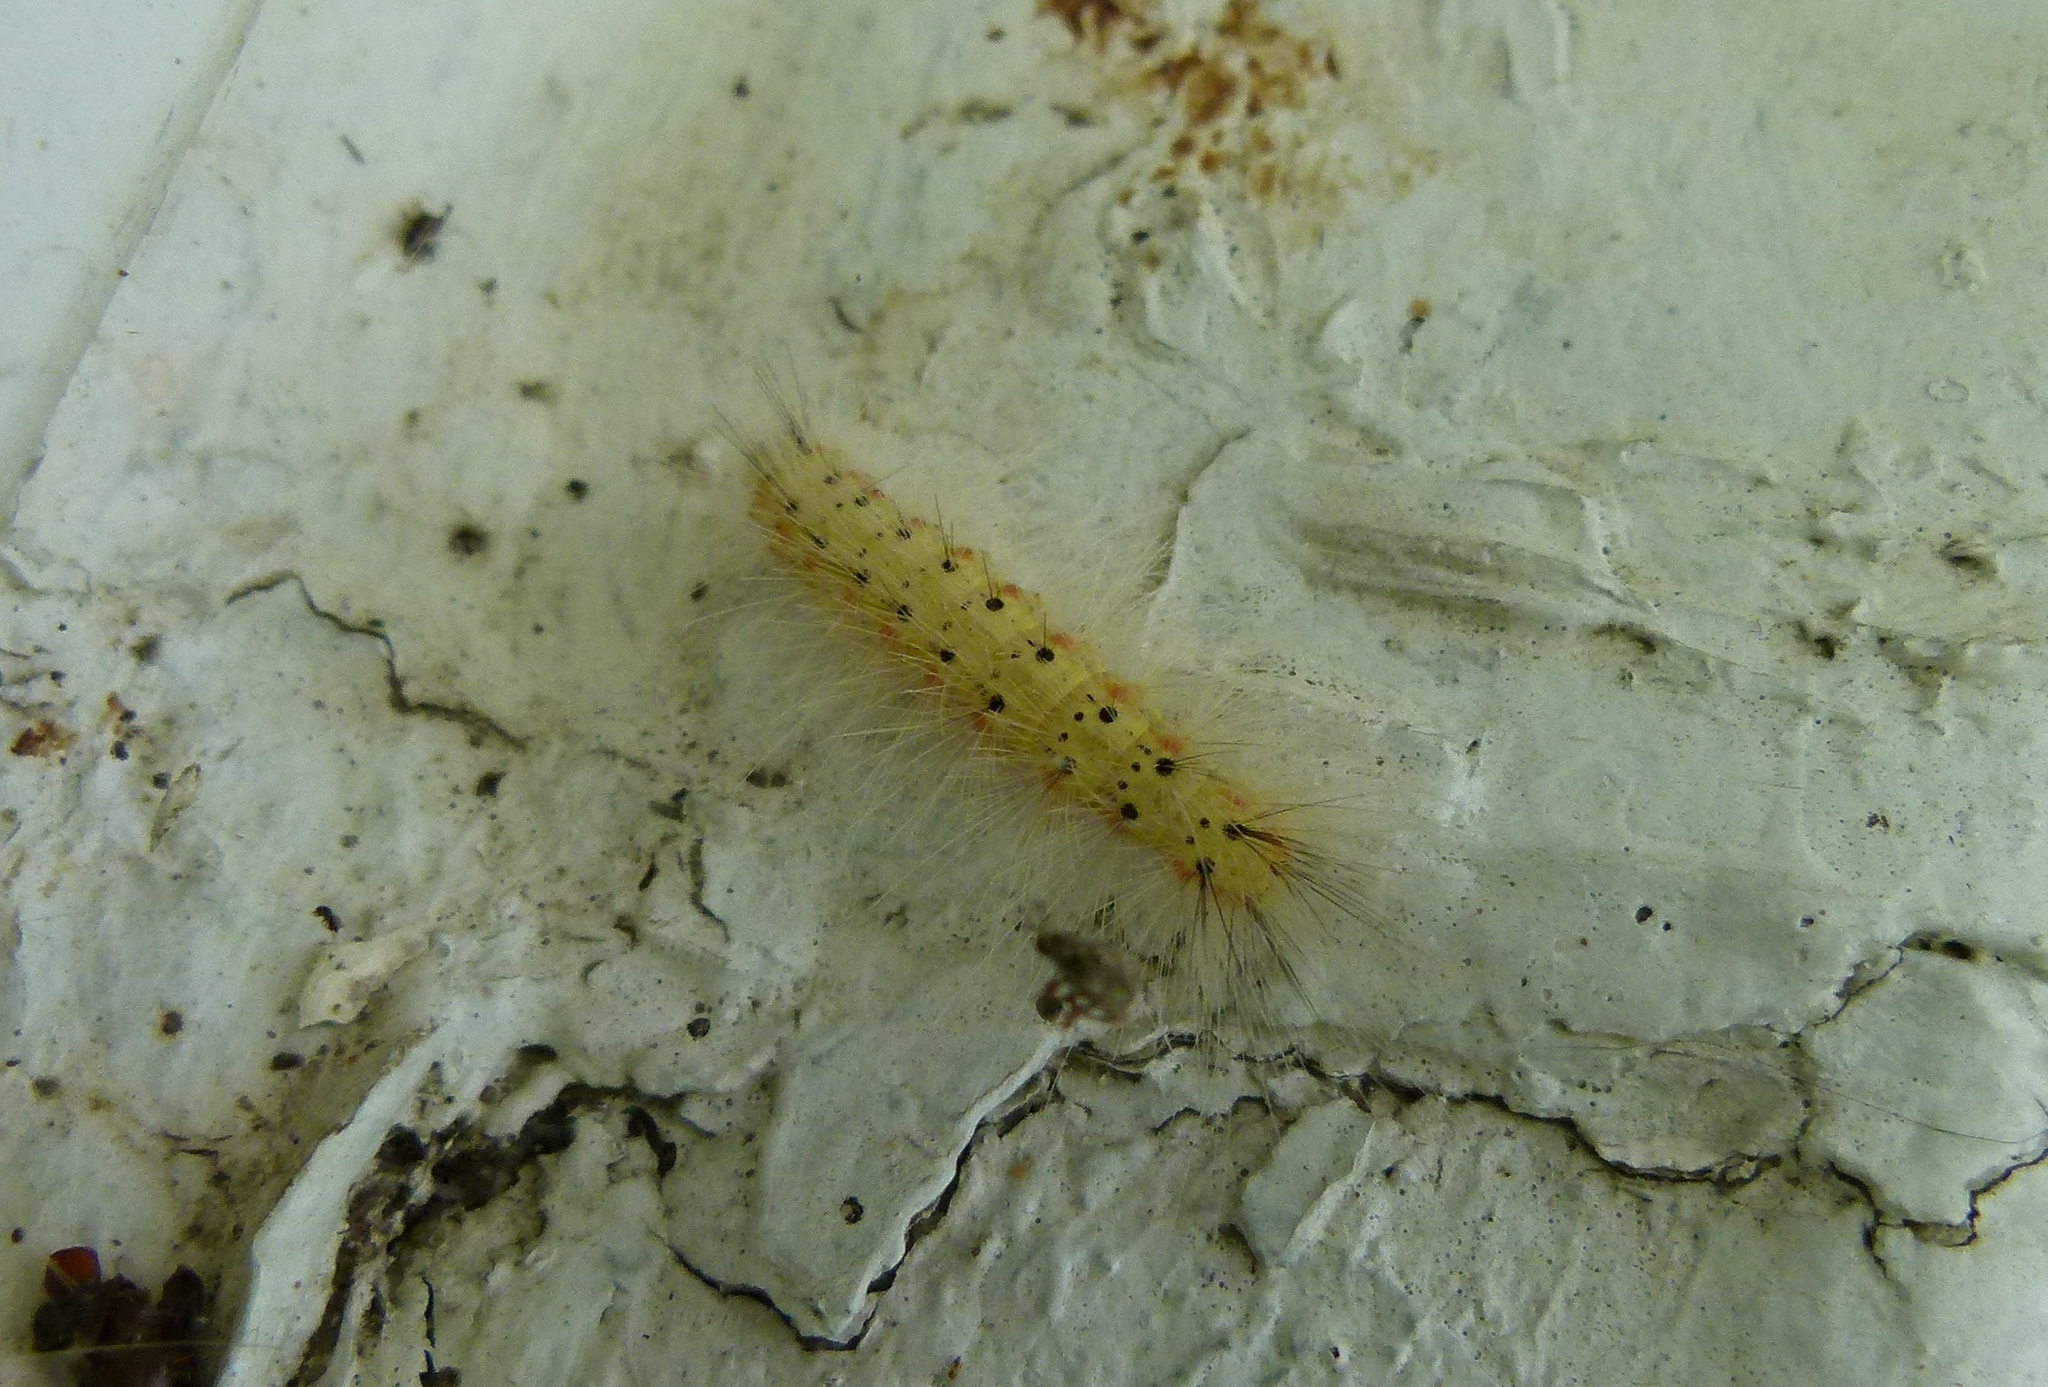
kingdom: Animalia
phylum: Arthropoda
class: Insecta
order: Lepidoptera
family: Erebidae
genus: Hyphantria
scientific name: Hyphantria cunea
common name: American white moth
